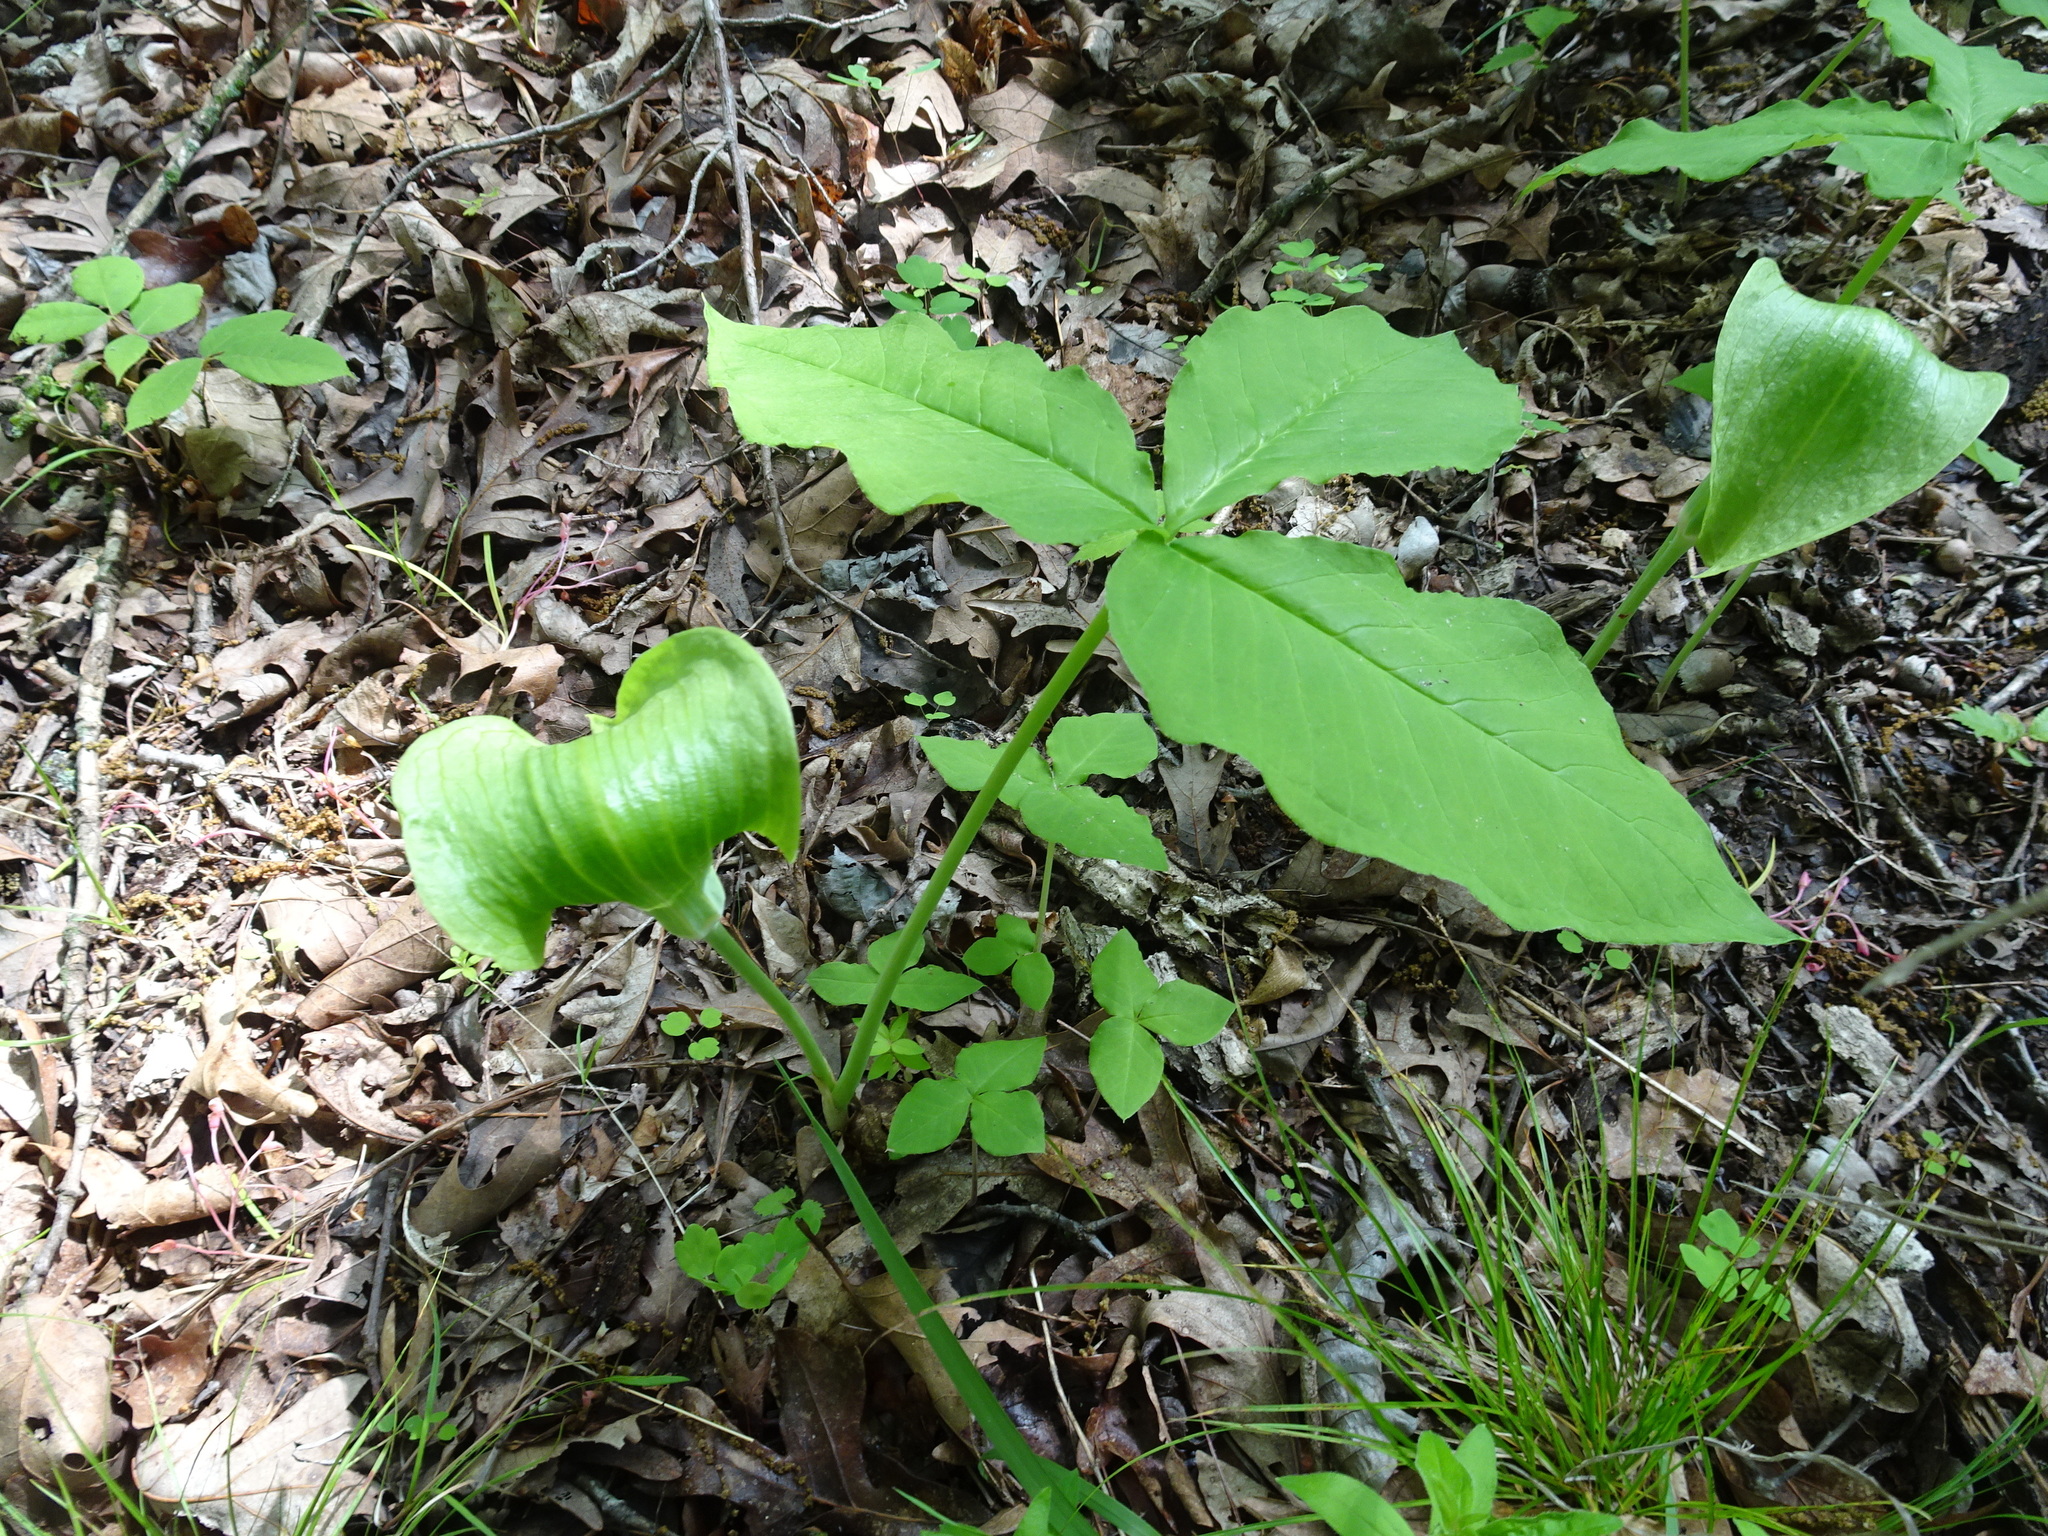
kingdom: Plantae
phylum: Tracheophyta
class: Liliopsida
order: Alismatales
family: Araceae
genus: Arisaema
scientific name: Arisaema triphyllum
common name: Jack-in-the-pulpit
